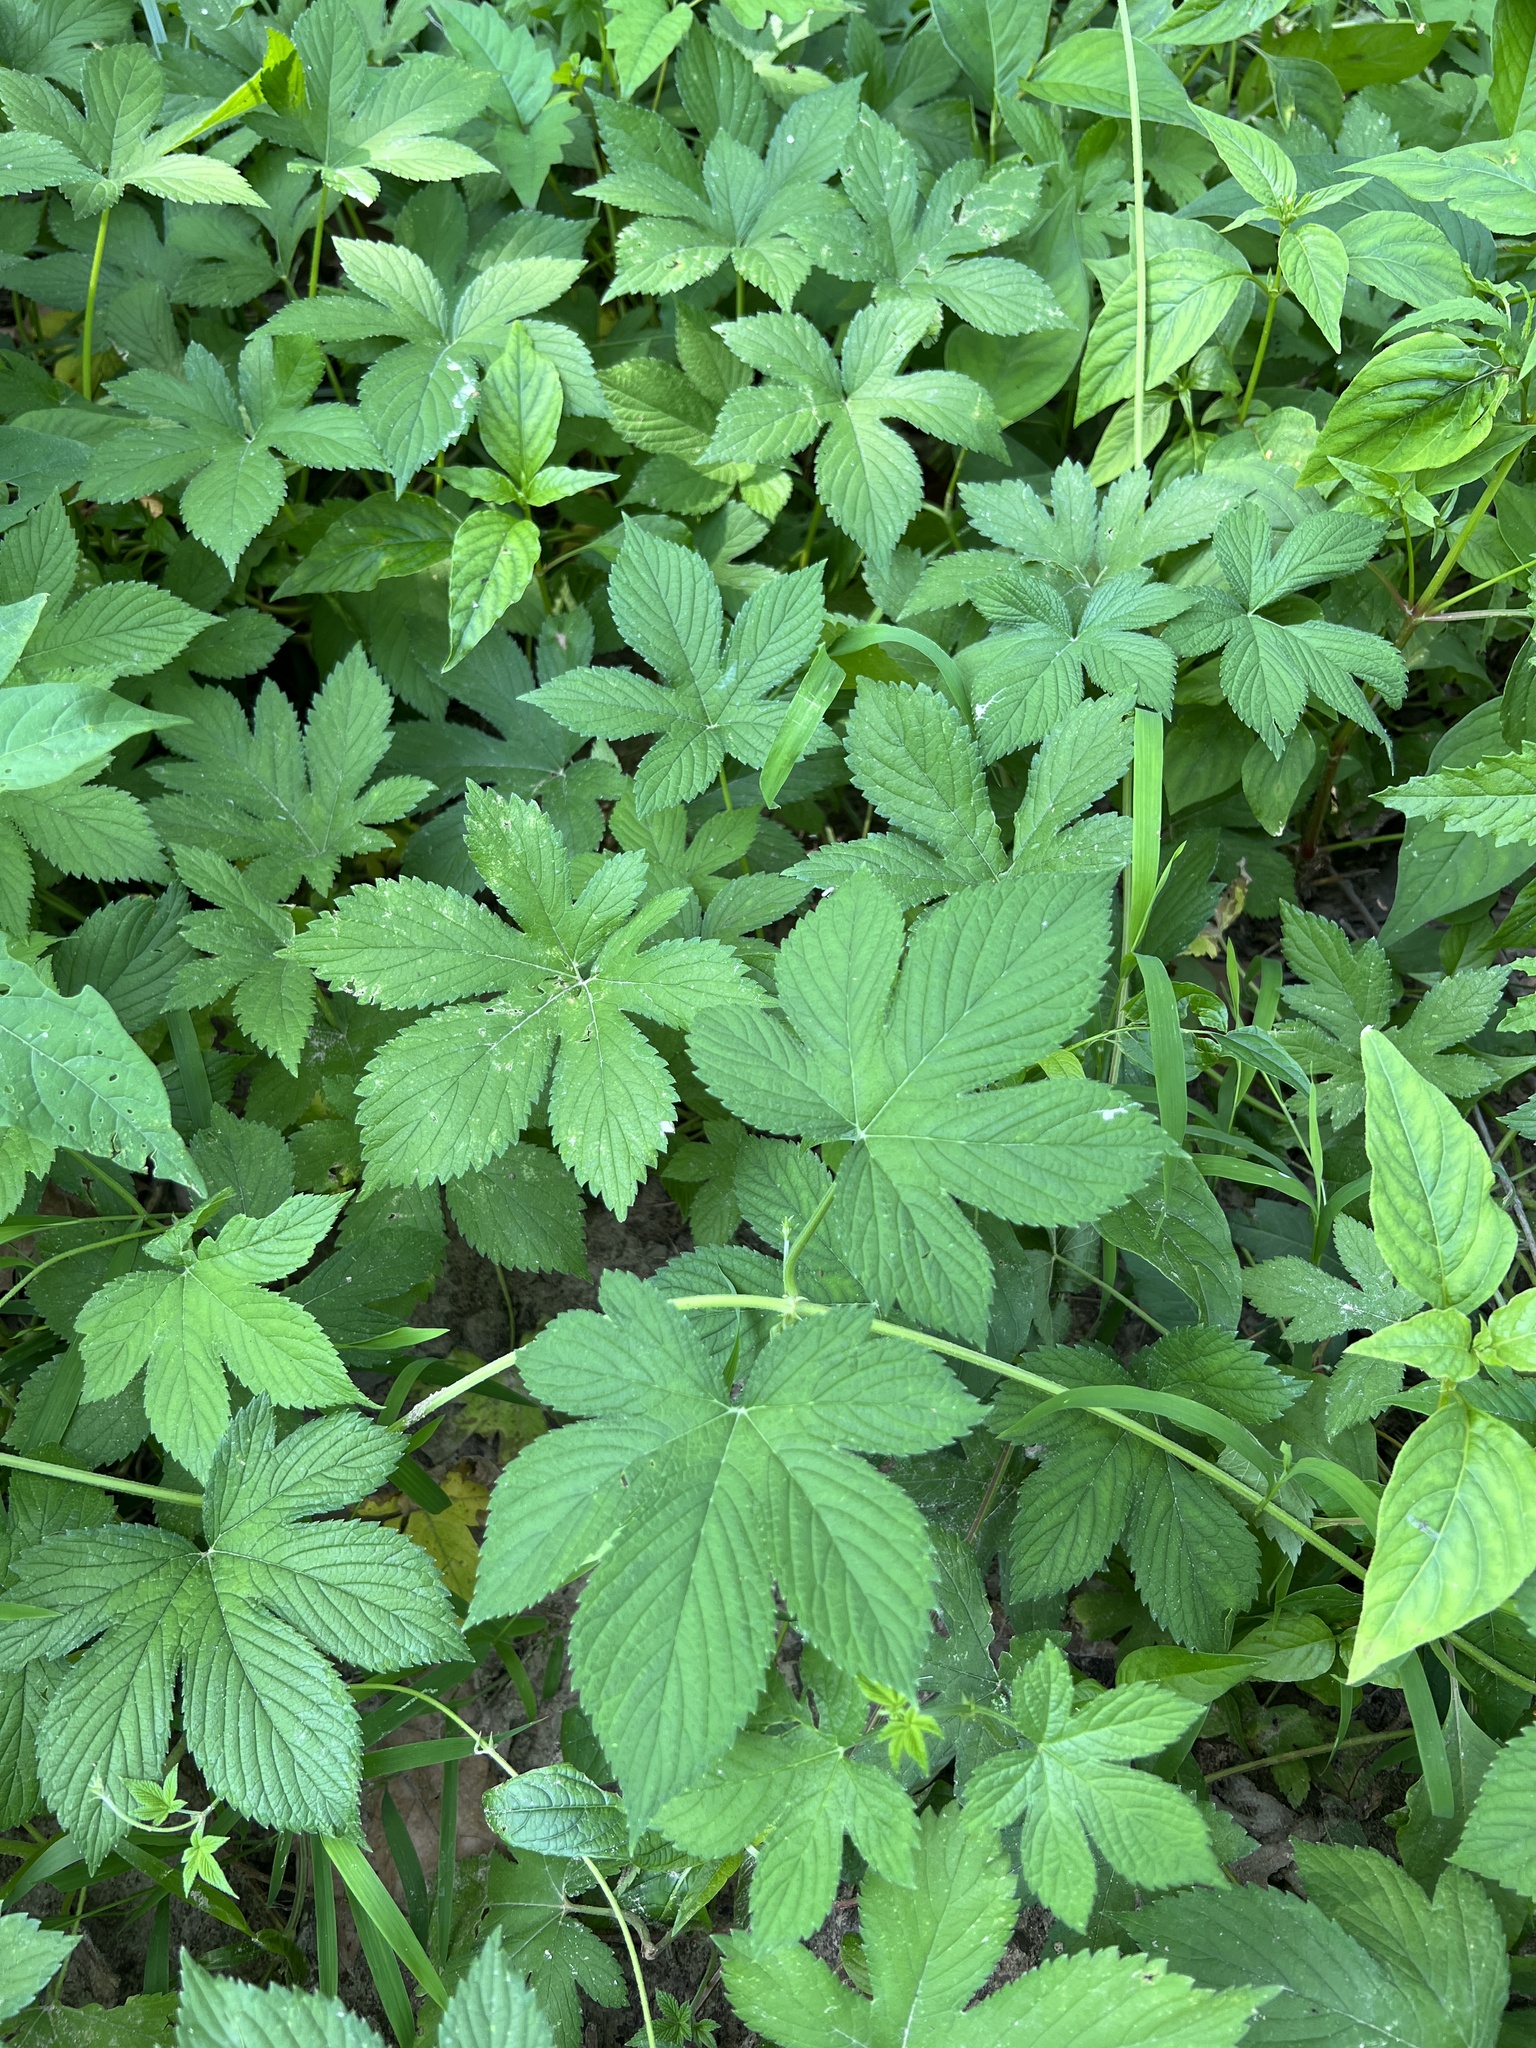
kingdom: Plantae
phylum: Tracheophyta
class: Magnoliopsida
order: Rosales
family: Cannabaceae
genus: Humulus
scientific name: Humulus scandens
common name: Japanese hop
